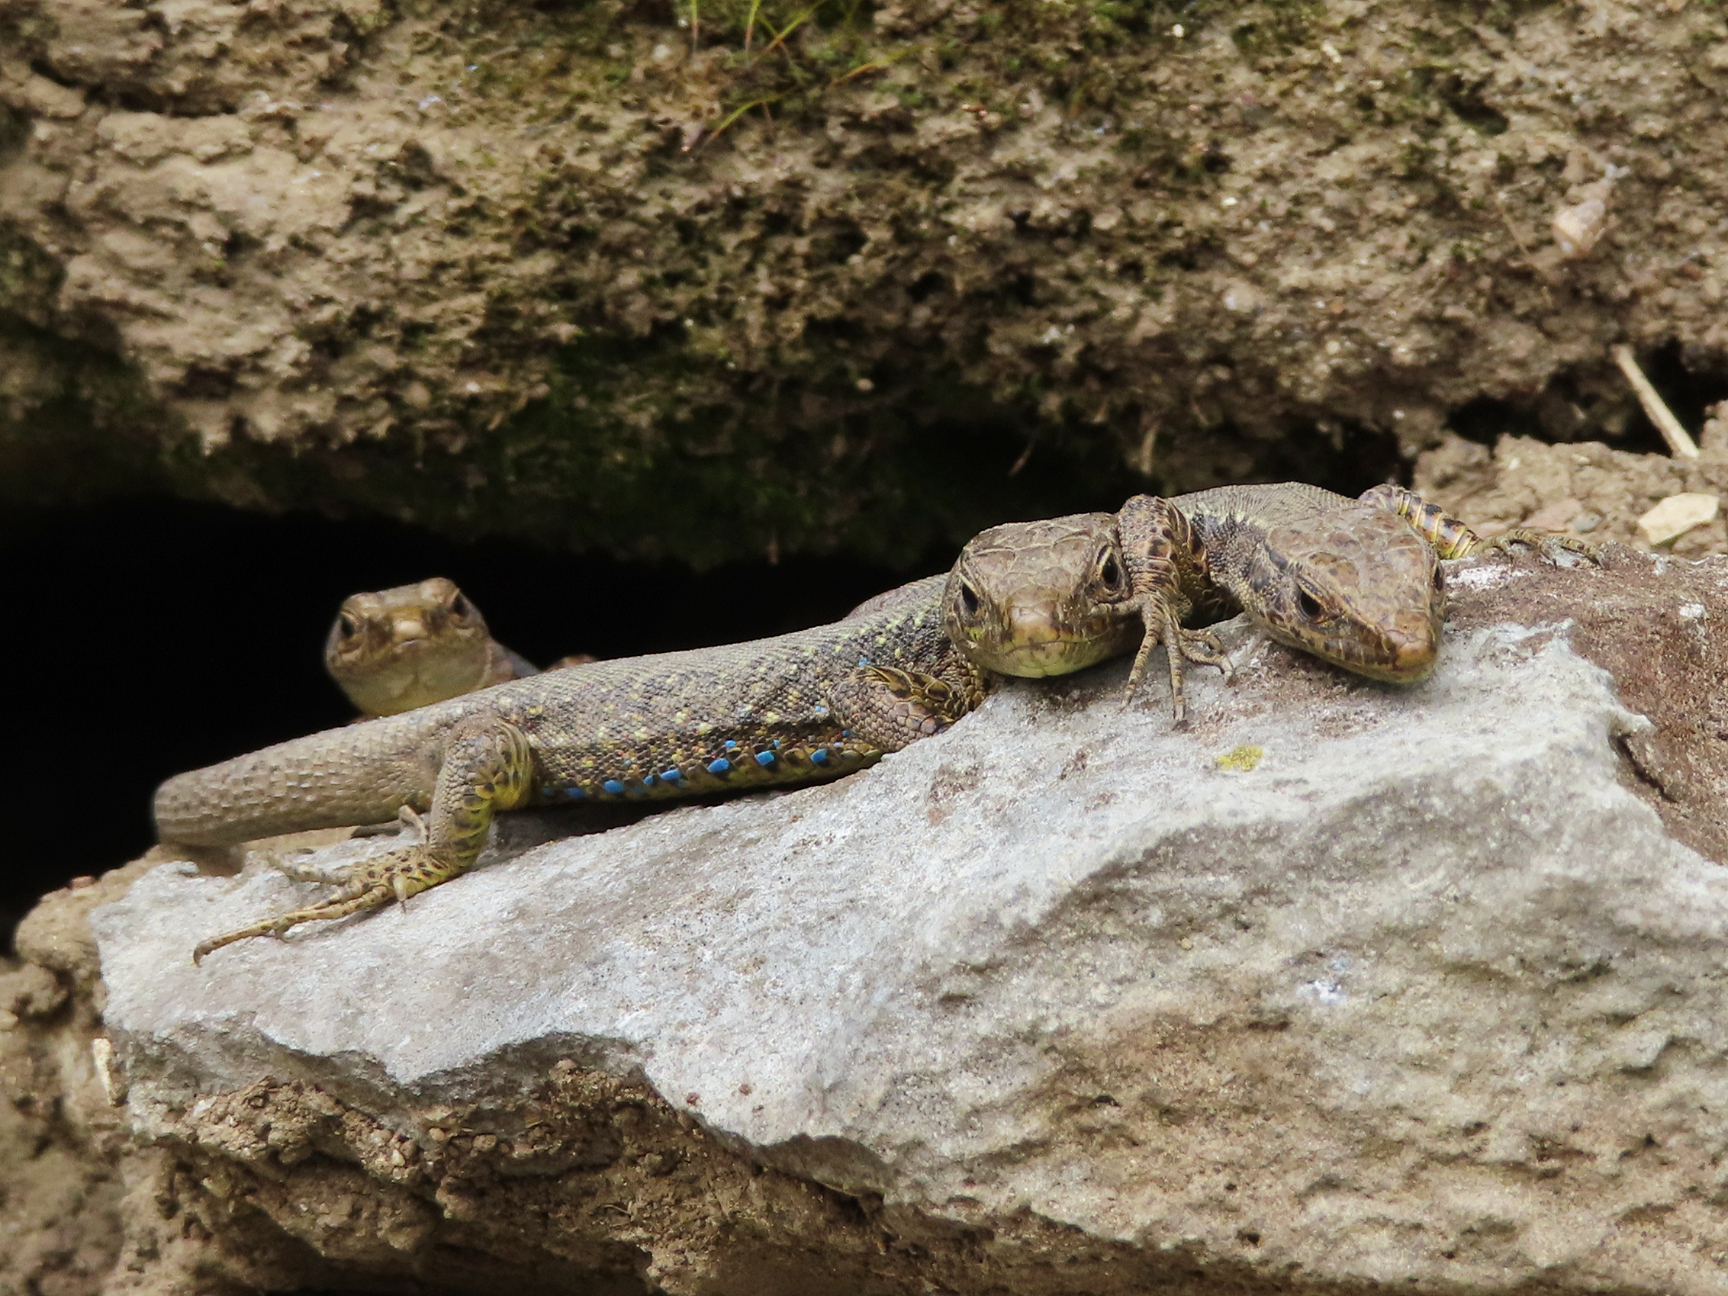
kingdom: Animalia
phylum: Chordata
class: Squamata
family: Lacertidae
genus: Darevskia
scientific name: Darevskia mixta
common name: Ajarian lizard
